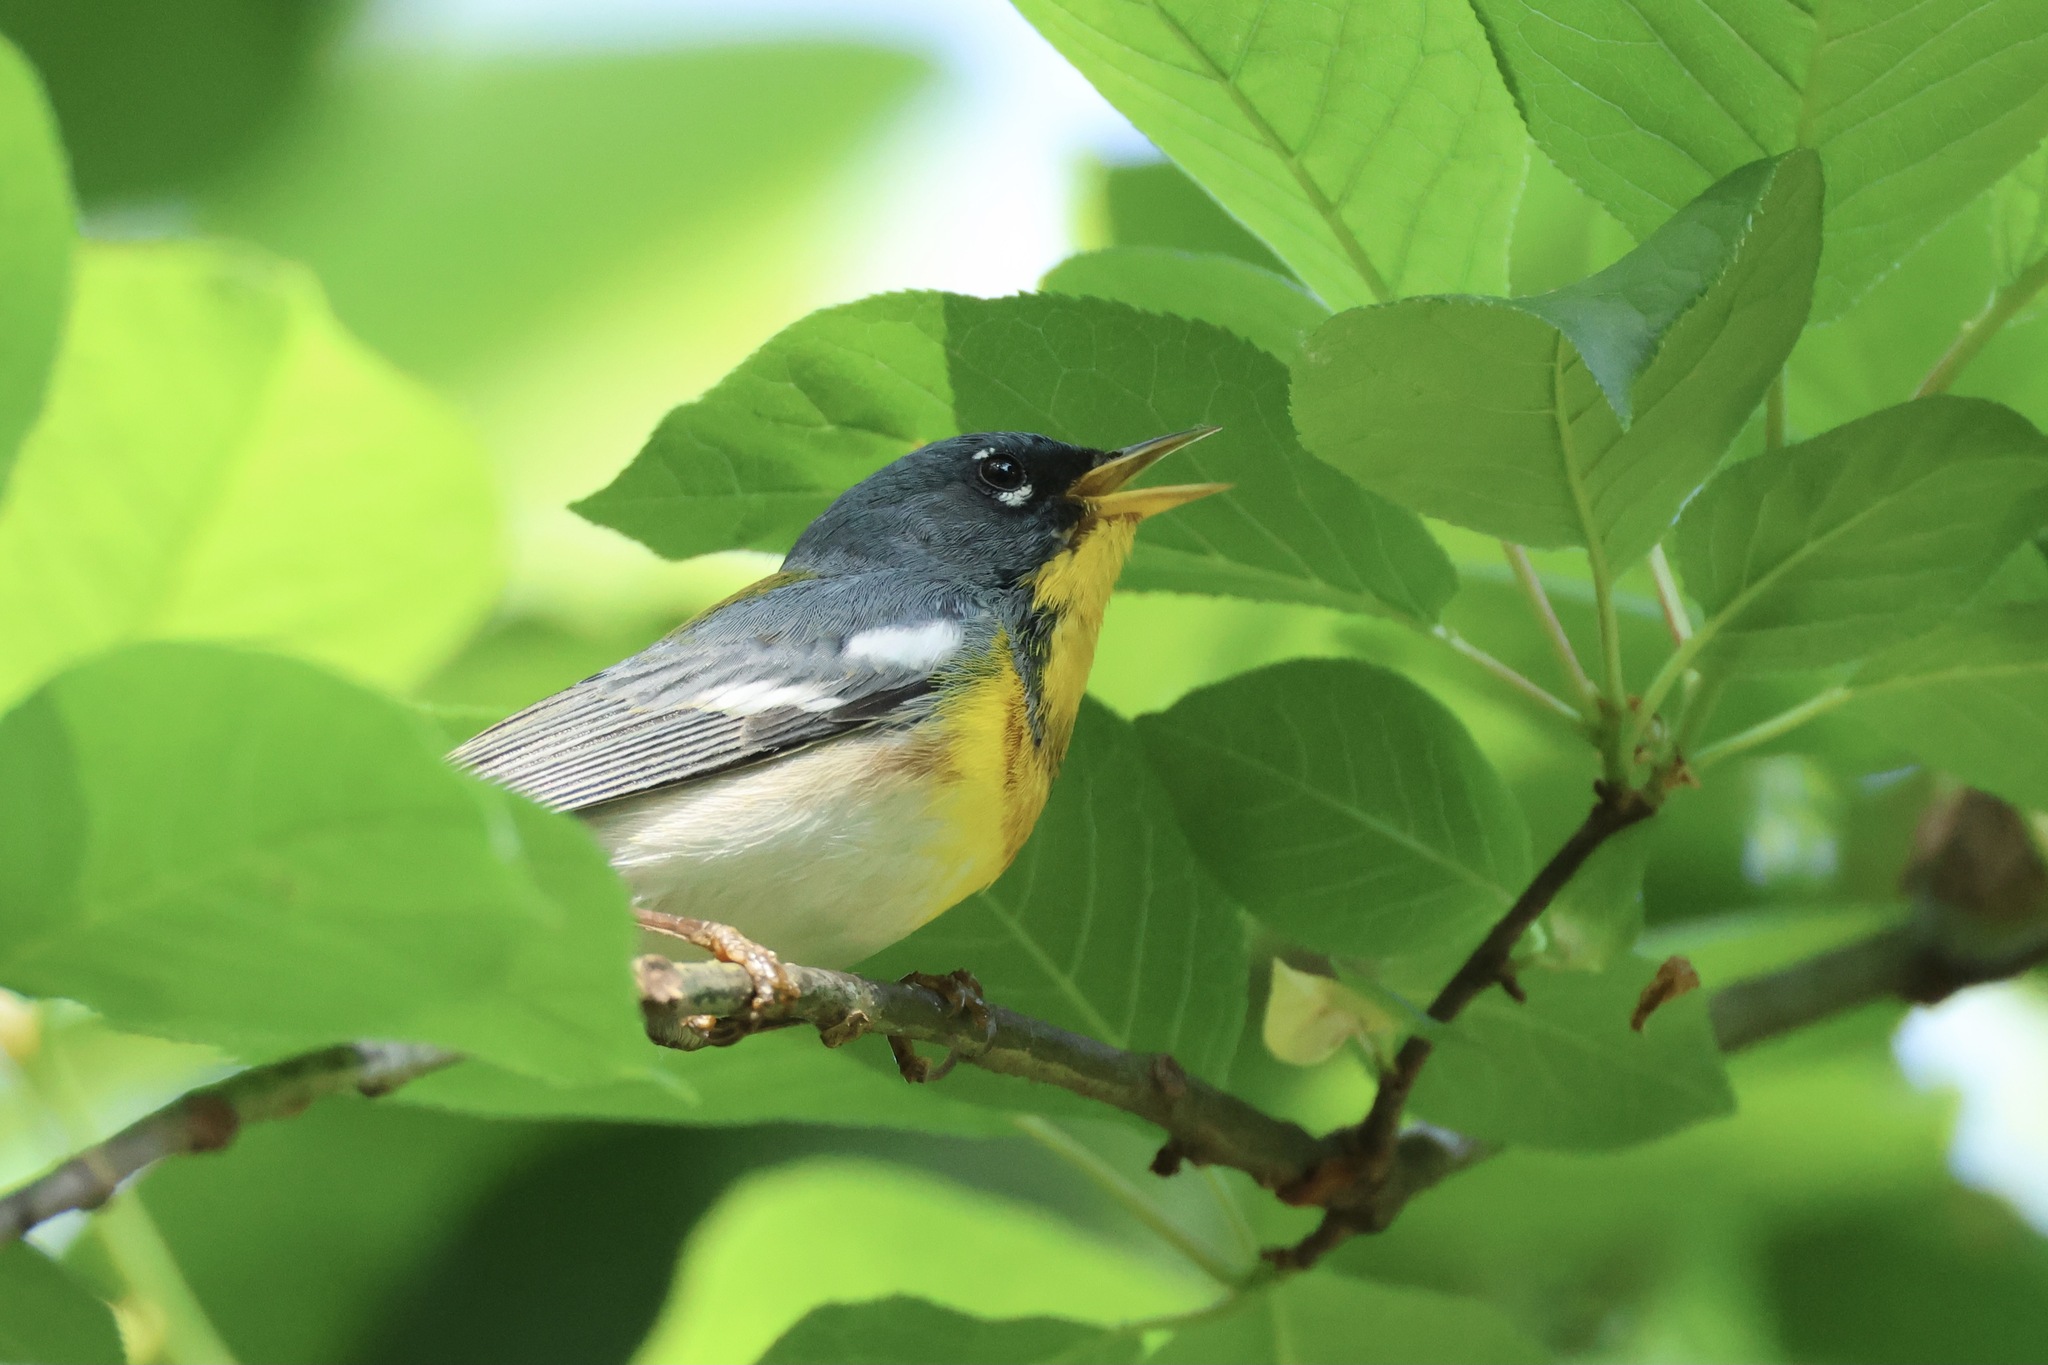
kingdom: Animalia
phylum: Chordata
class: Aves
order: Passeriformes
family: Parulidae
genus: Setophaga
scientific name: Setophaga americana
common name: Northern parula
